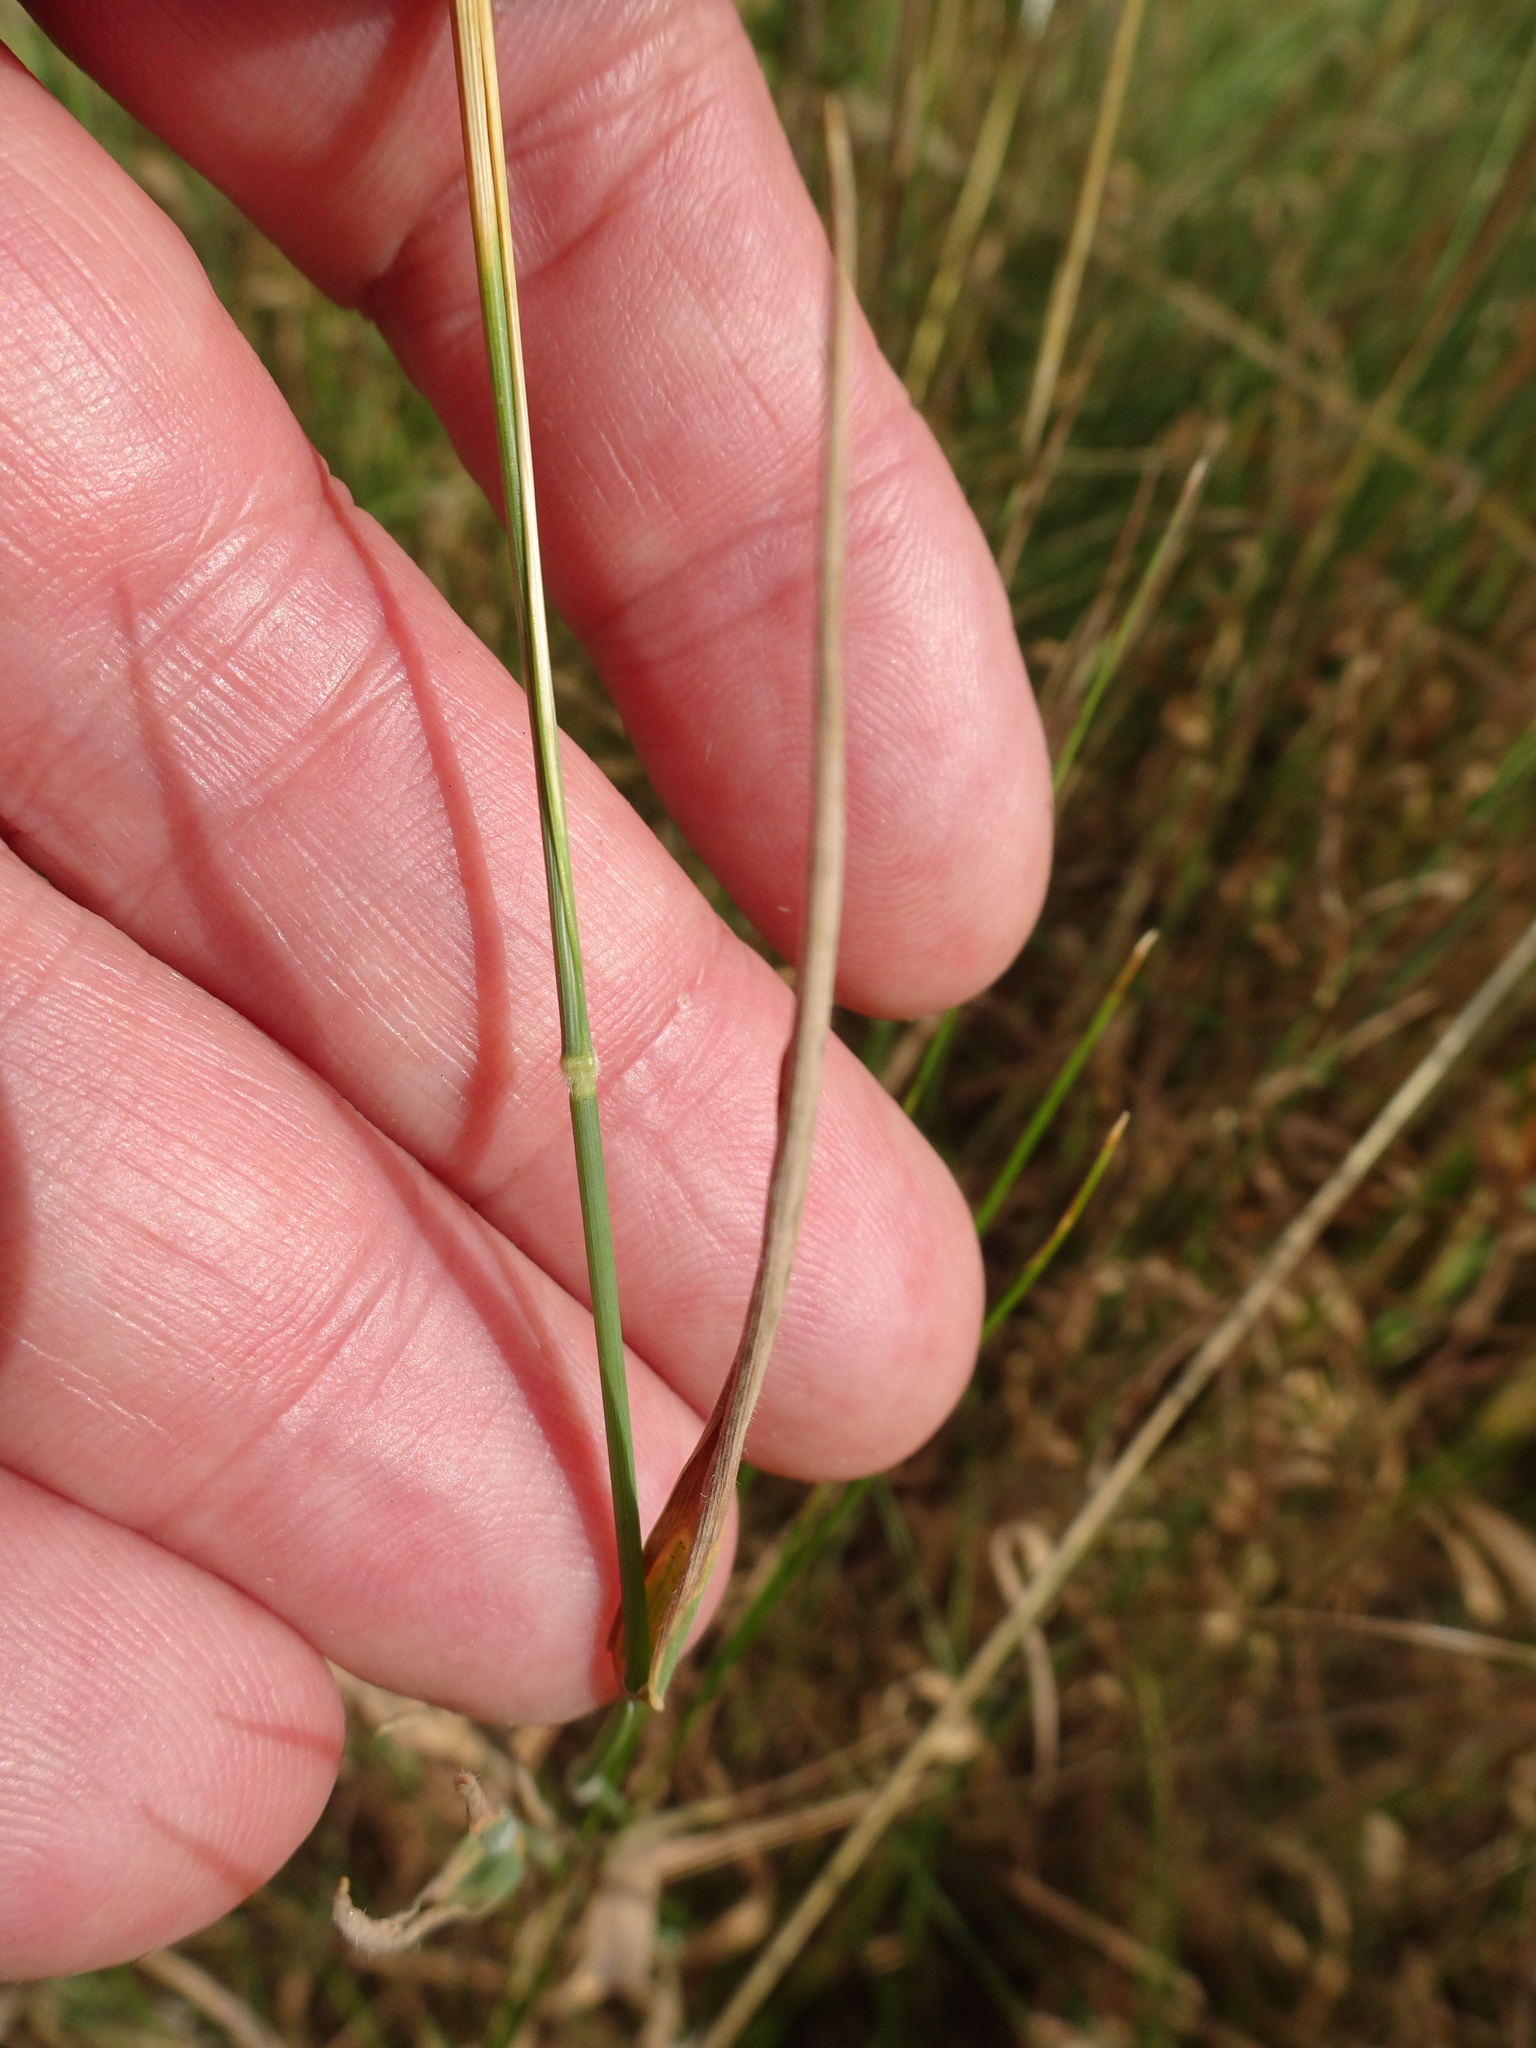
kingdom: Plantae
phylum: Tracheophyta
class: Liliopsida
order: Poales
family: Poaceae
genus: Holcus
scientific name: Holcus mollis
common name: Creeping velvetgrass
